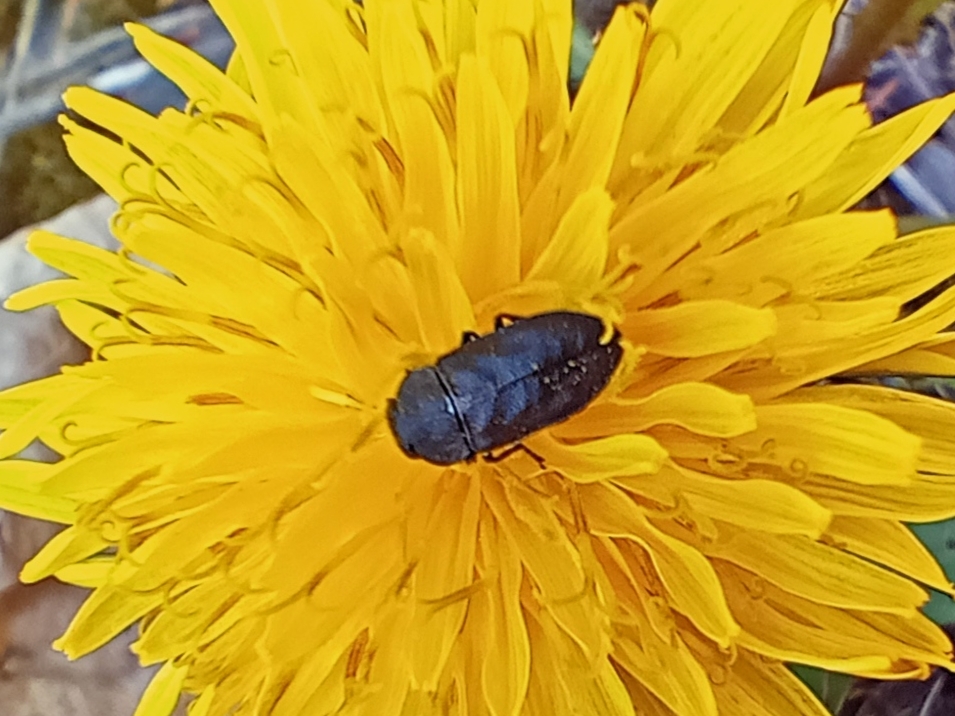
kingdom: Animalia
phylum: Arthropoda
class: Insecta
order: Coleoptera
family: Buprestidae
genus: Anthaxia
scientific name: Anthaxia helvetica
